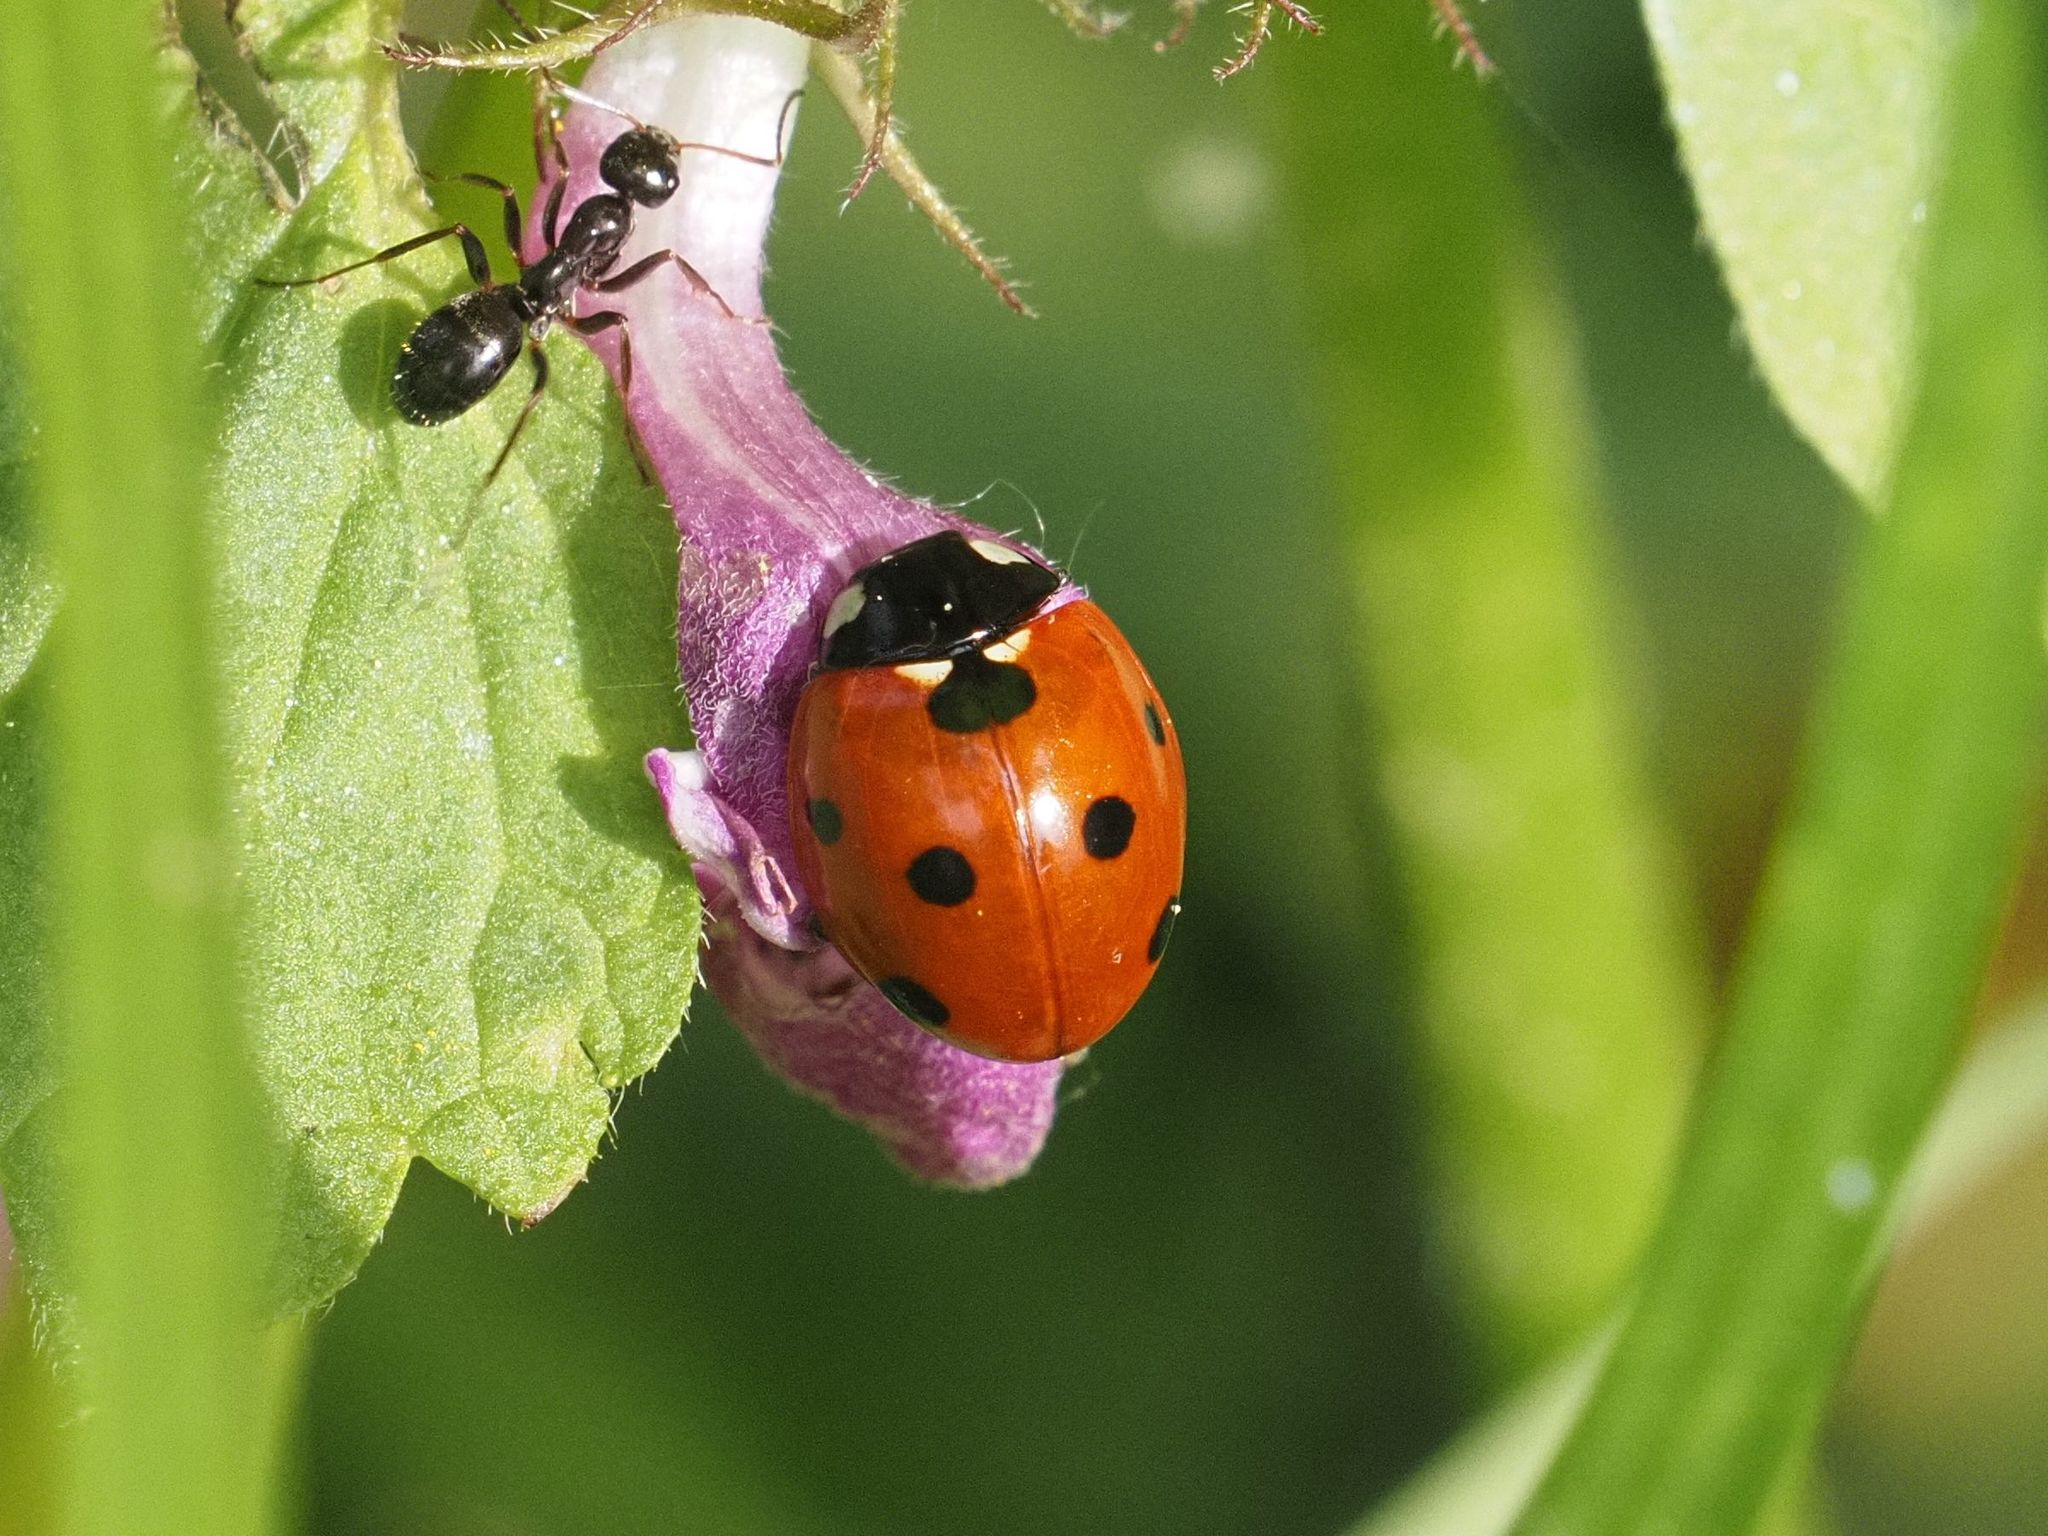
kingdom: Animalia
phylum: Arthropoda
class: Insecta
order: Coleoptera
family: Coccinellidae
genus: Coccinella
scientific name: Coccinella septempunctata
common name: Sevenspotted lady beetle
